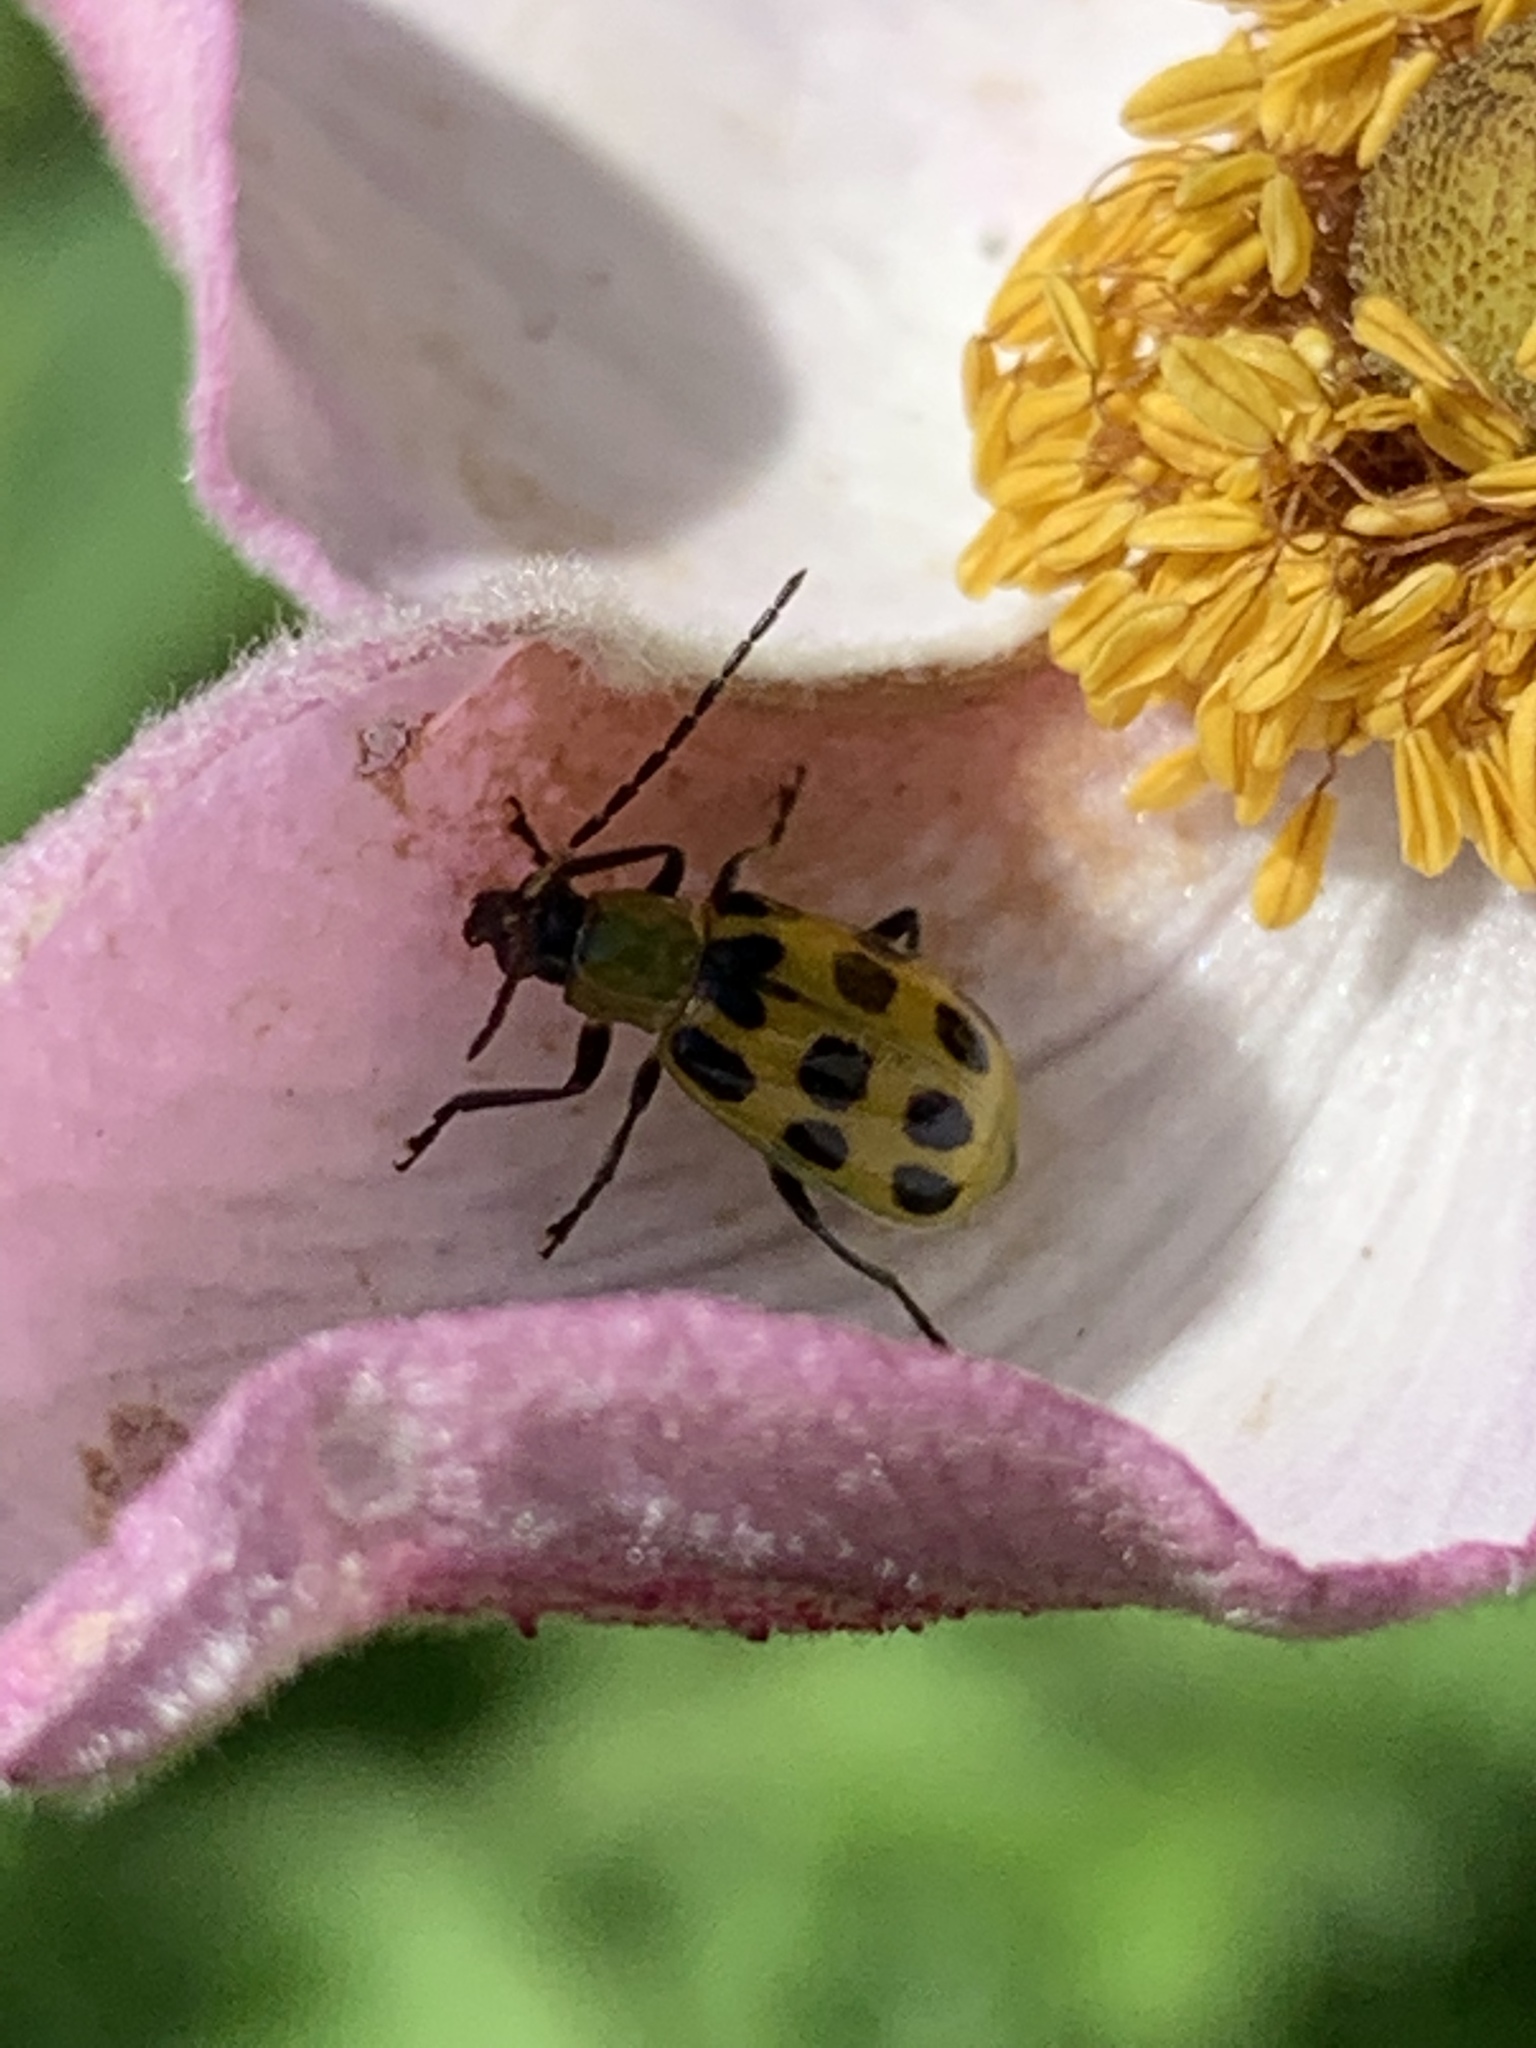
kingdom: Animalia
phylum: Arthropoda
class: Insecta
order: Coleoptera
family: Chrysomelidae
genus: Diabrotica
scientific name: Diabrotica undecimpunctata
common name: Spotted cucumber beetle
